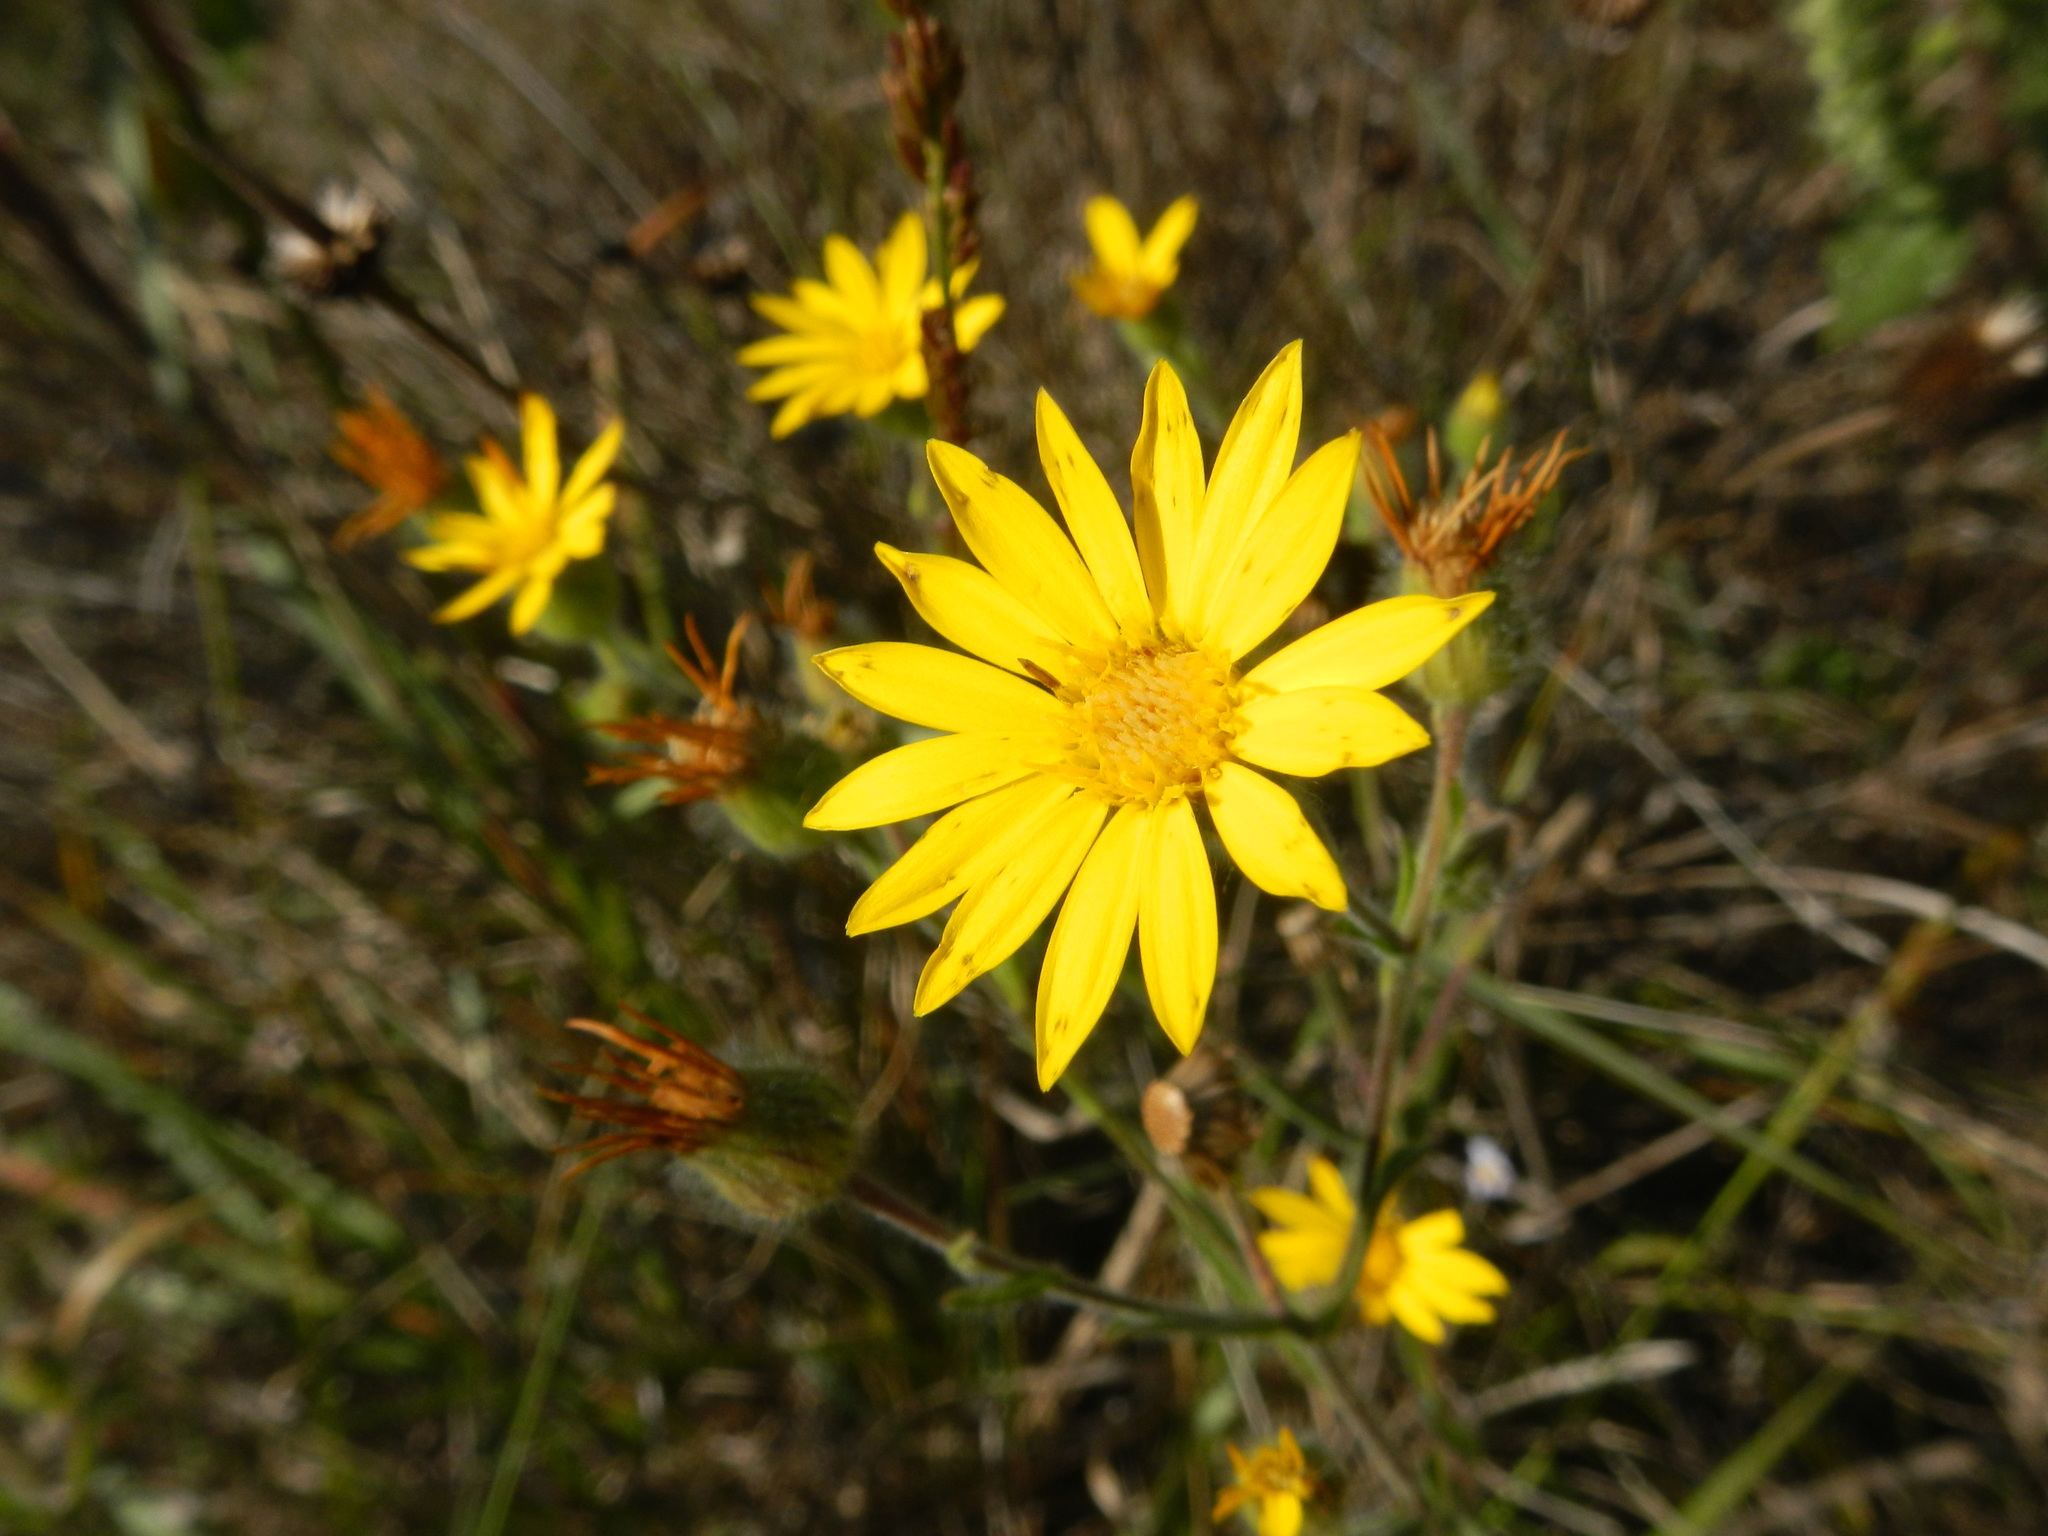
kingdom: Plantae
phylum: Tracheophyta
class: Magnoliopsida
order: Asterales
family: Asteraceae
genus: Heterotheca
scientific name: Heterotheca subaxillaris
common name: Camphorweed
